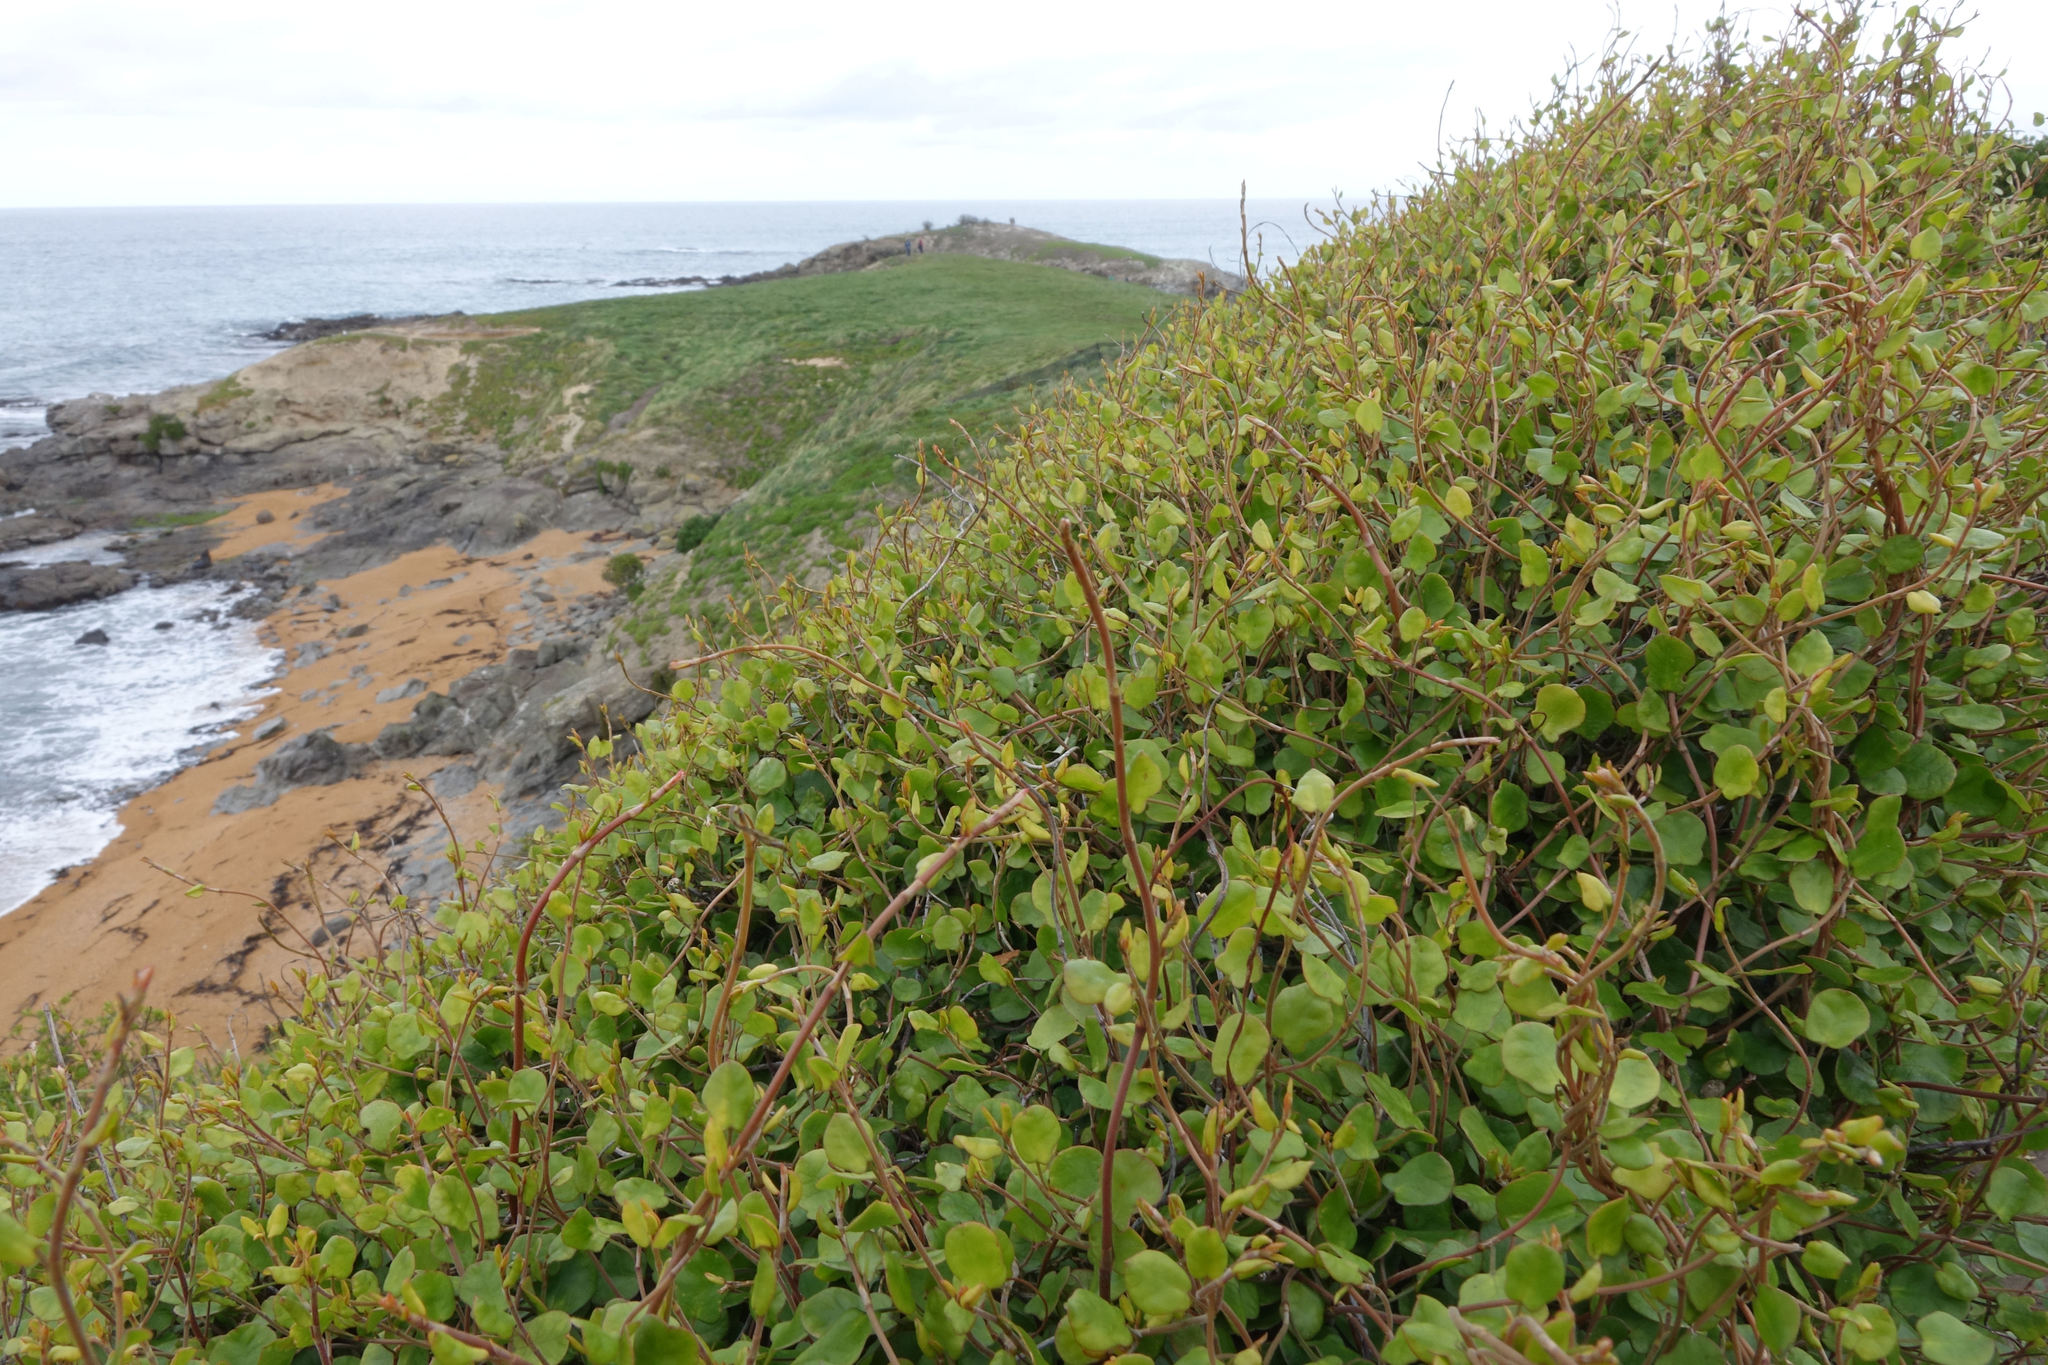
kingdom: Plantae
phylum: Tracheophyta
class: Magnoliopsida
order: Caryophyllales
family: Polygonaceae
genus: Muehlenbeckia
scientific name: Muehlenbeckia complexa
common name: Wireplant
